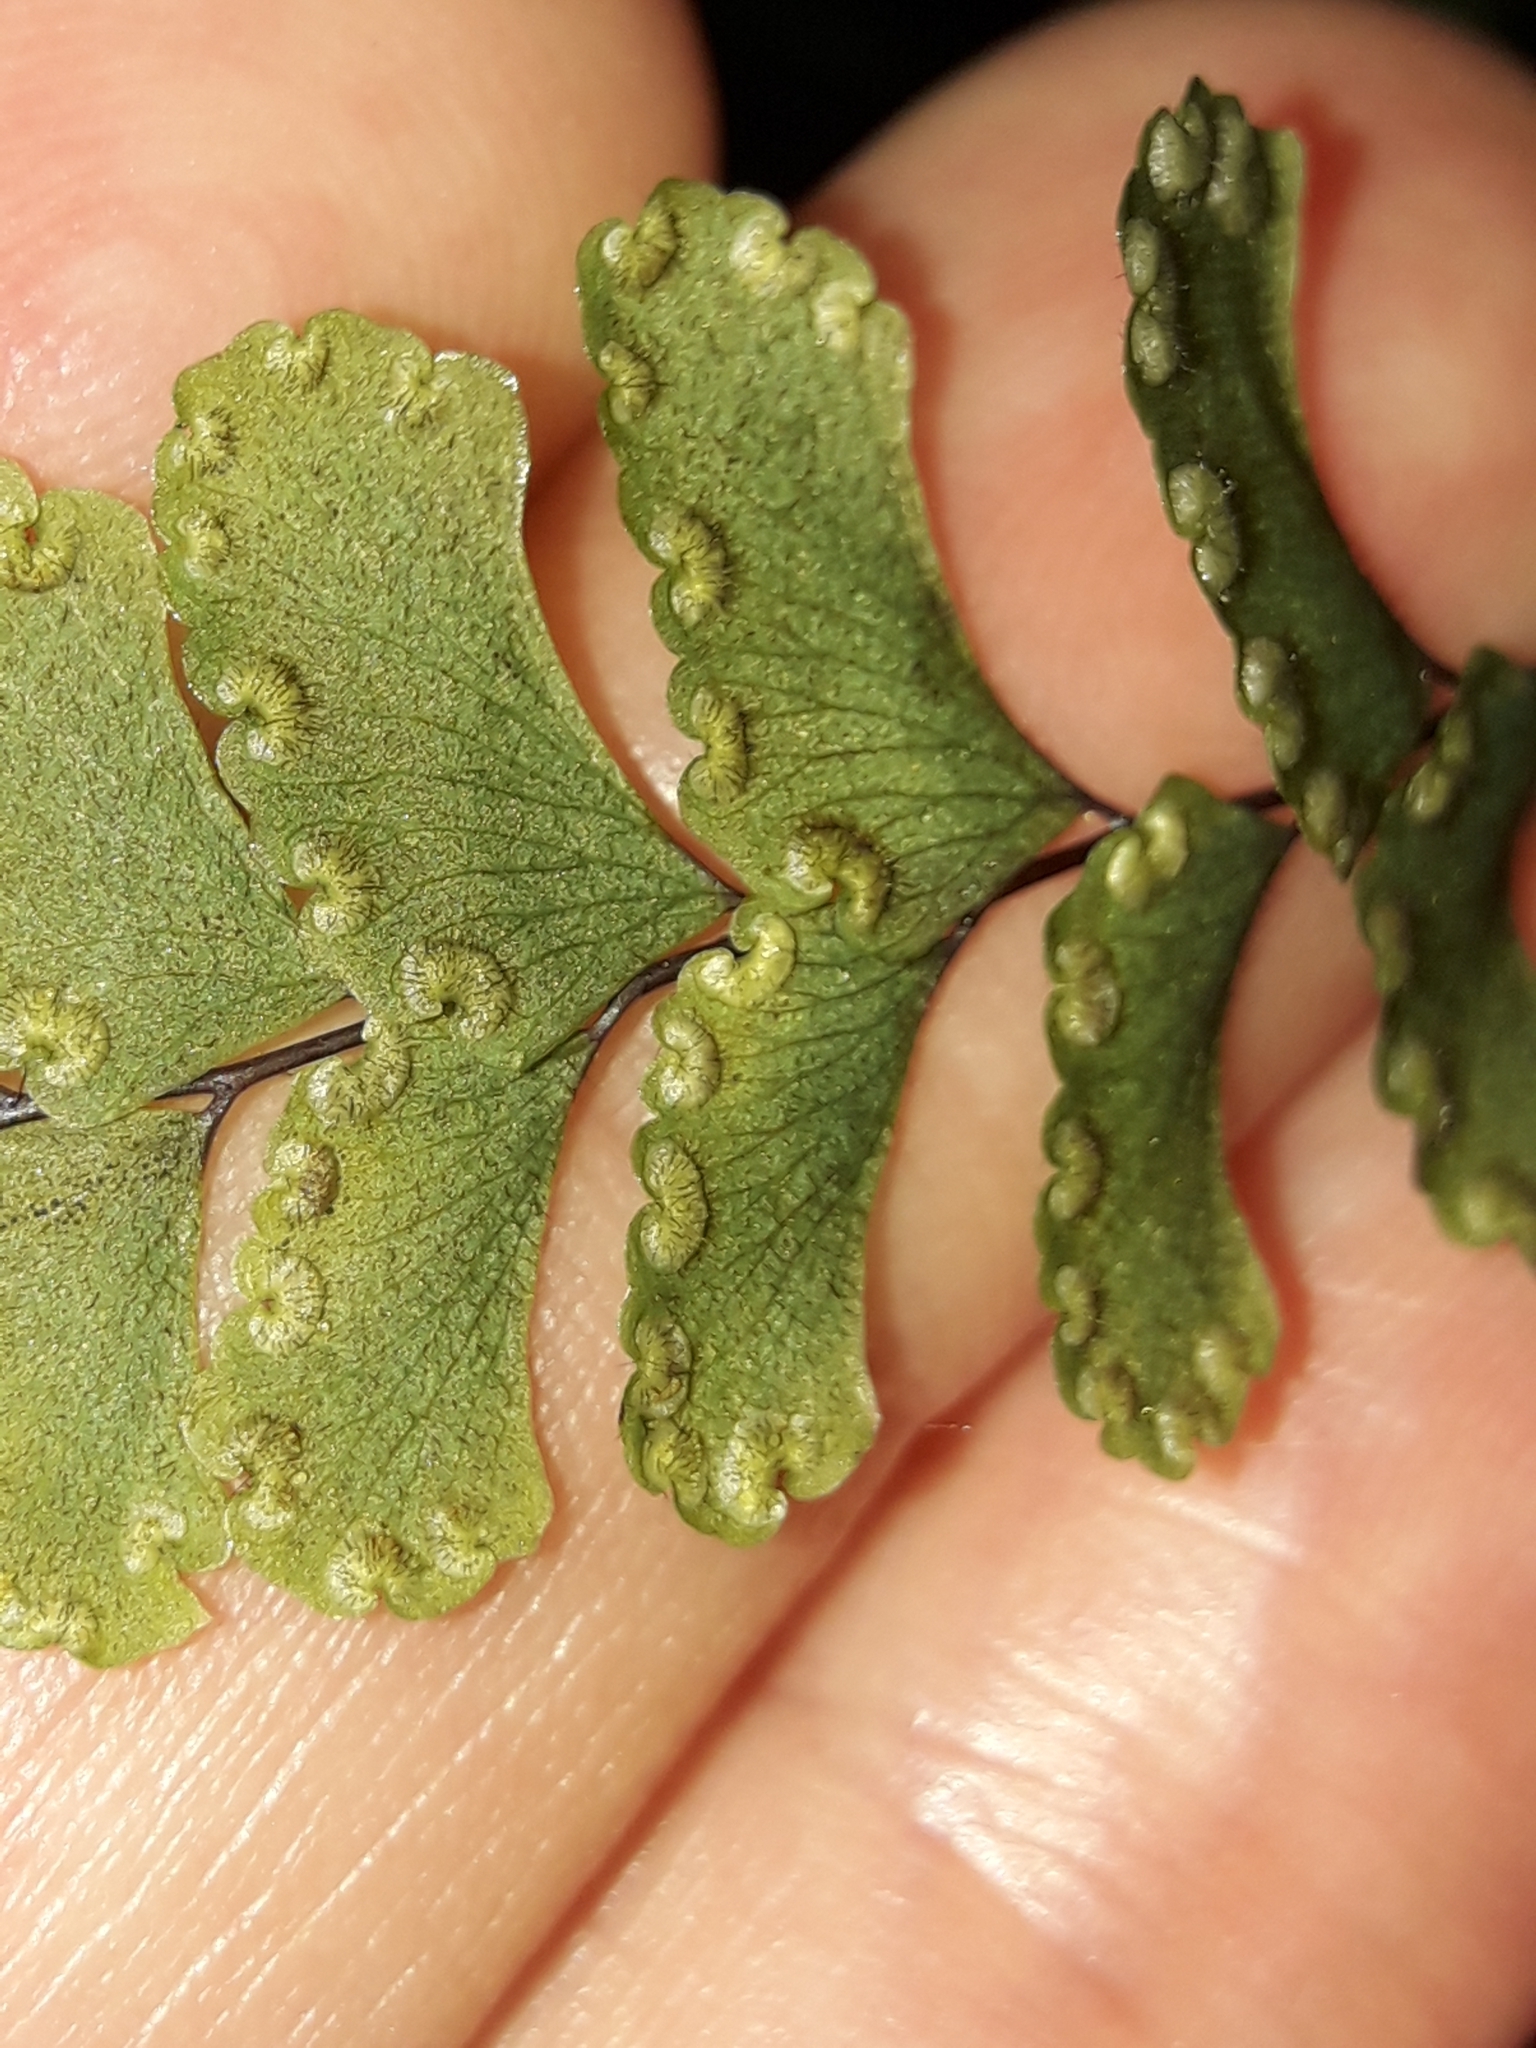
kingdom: Plantae
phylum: Tracheophyta
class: Polypodiopsida
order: Polypodiales
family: Pteridaceae
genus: Adiantum
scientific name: Adiantum diaphanum
